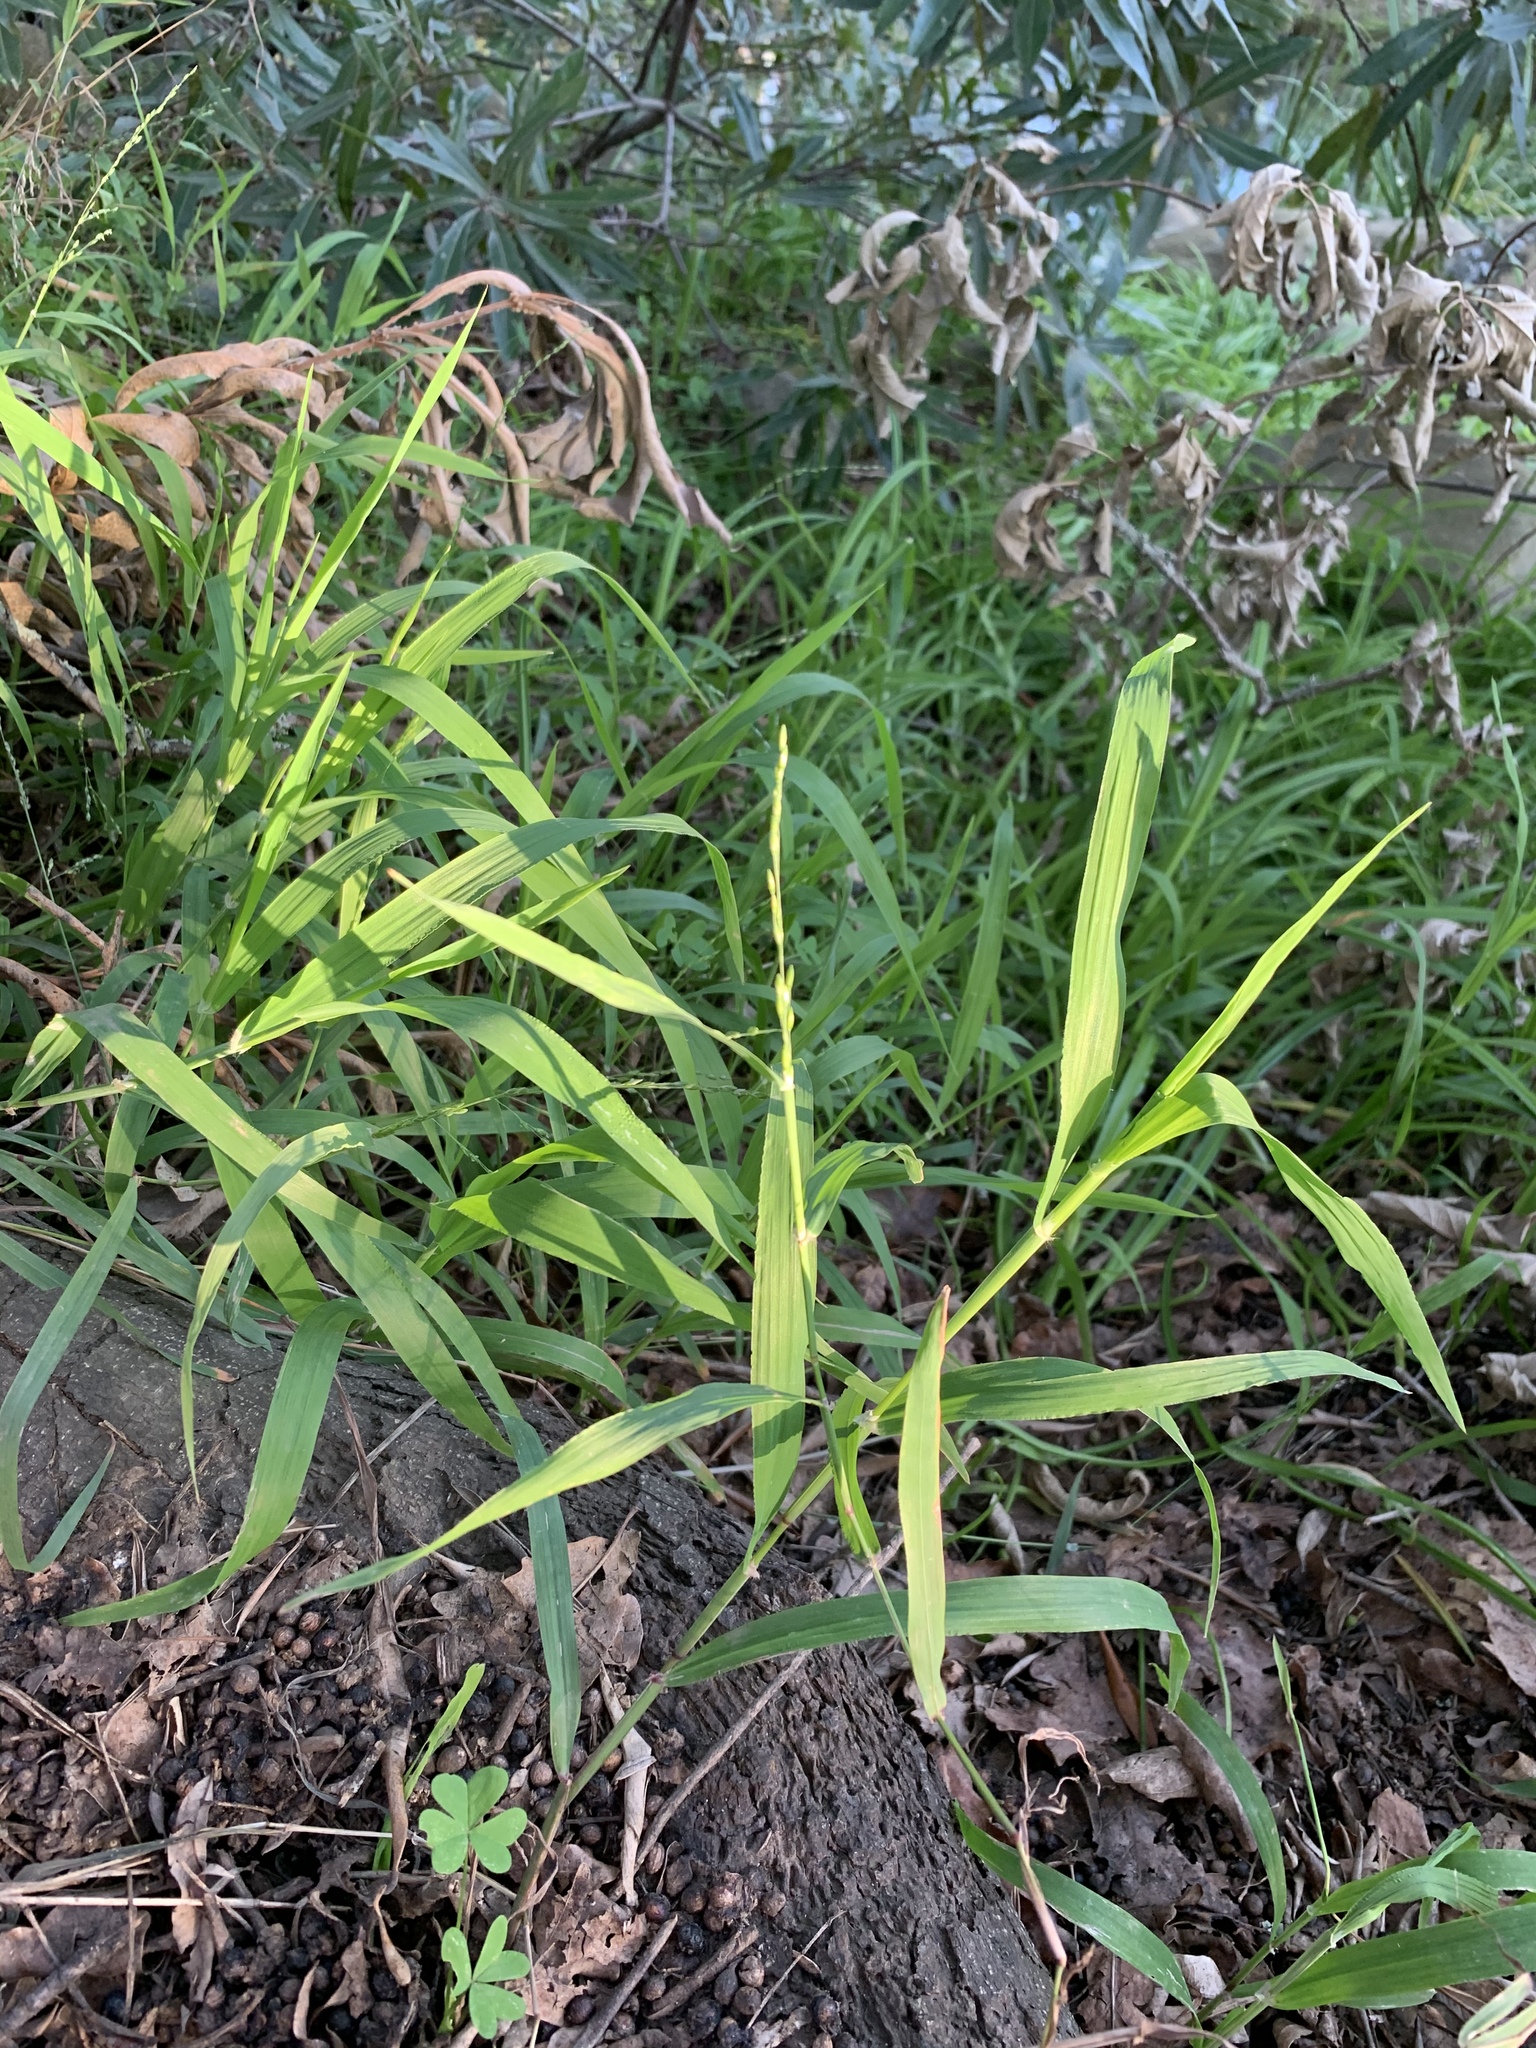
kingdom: Plantae
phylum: Tracheophyta
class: Liliopsida
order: Poales
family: Poaceae
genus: Ehrharta
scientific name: Ehrharta erecta
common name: Panic veldtgrass
